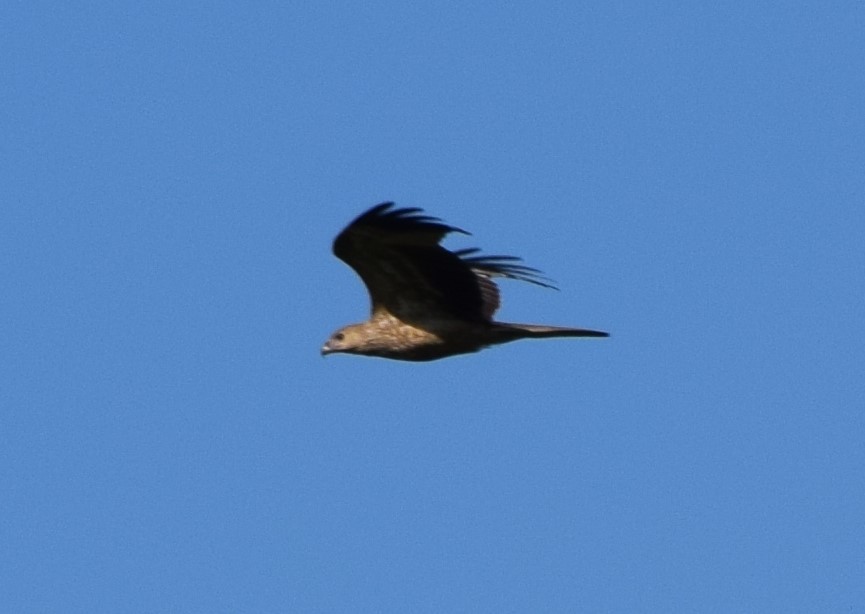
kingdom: Animalia
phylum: Chordata
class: Aves
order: Accipitriformes
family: Accipitridae
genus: Haliastur
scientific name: Haliastur sphenurus
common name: Whistling kite
